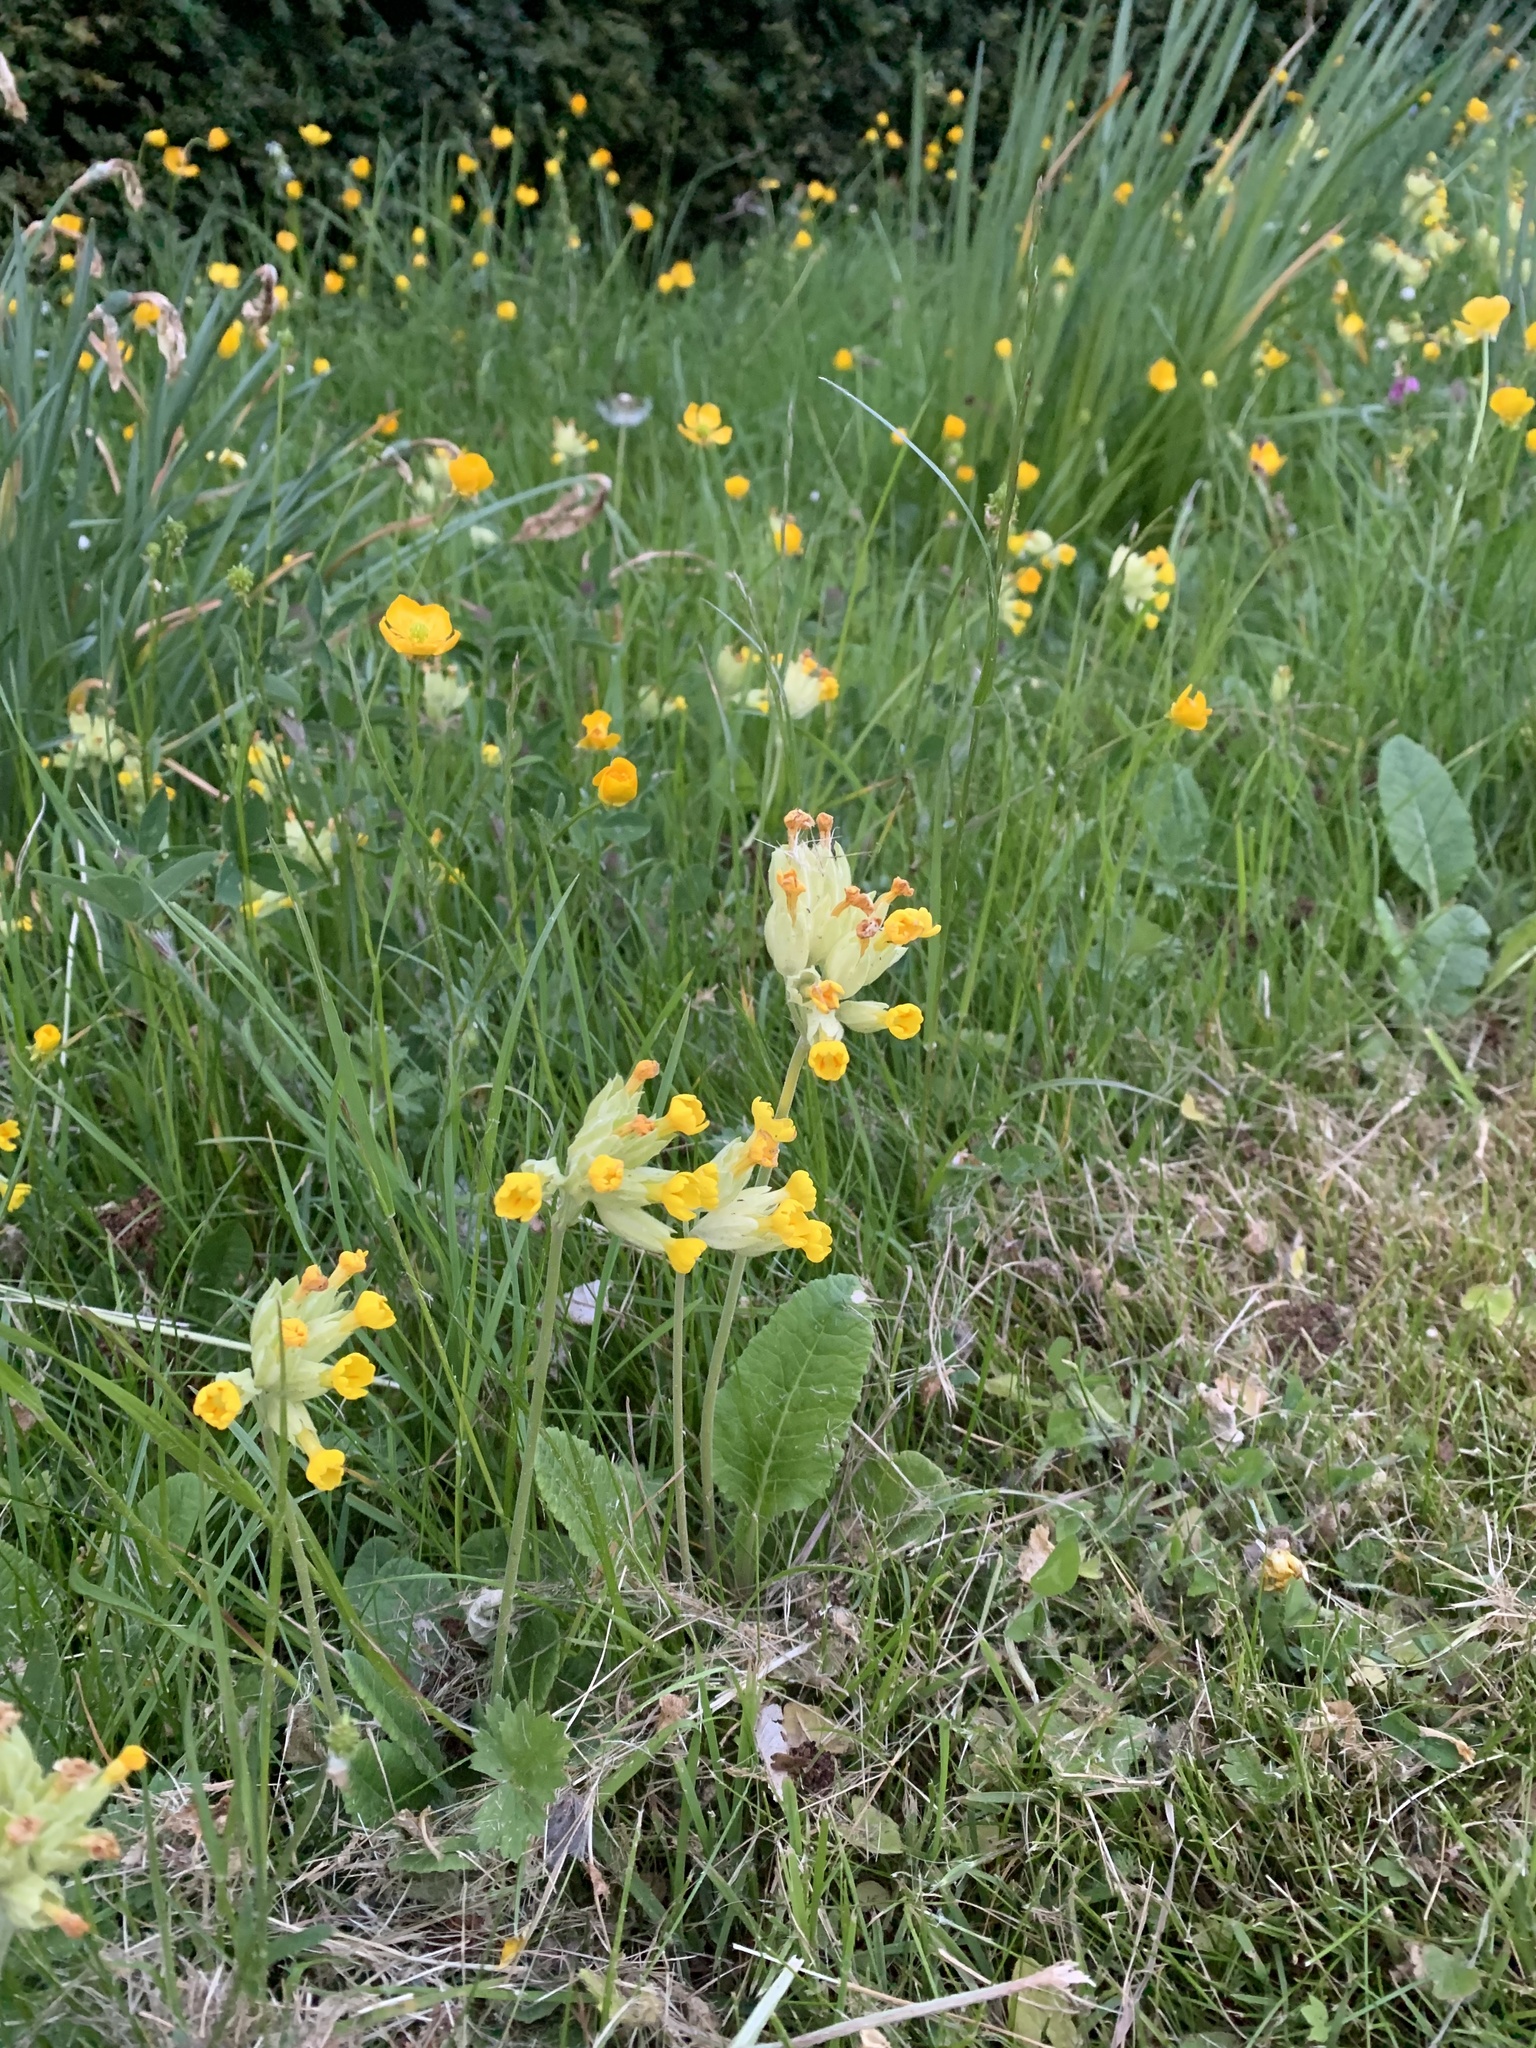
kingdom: Plantae
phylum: Tracheophyta
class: Magnoliopsida
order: Ericales
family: Primulaceae
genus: Primula
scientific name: Primula veris
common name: Cowslip
